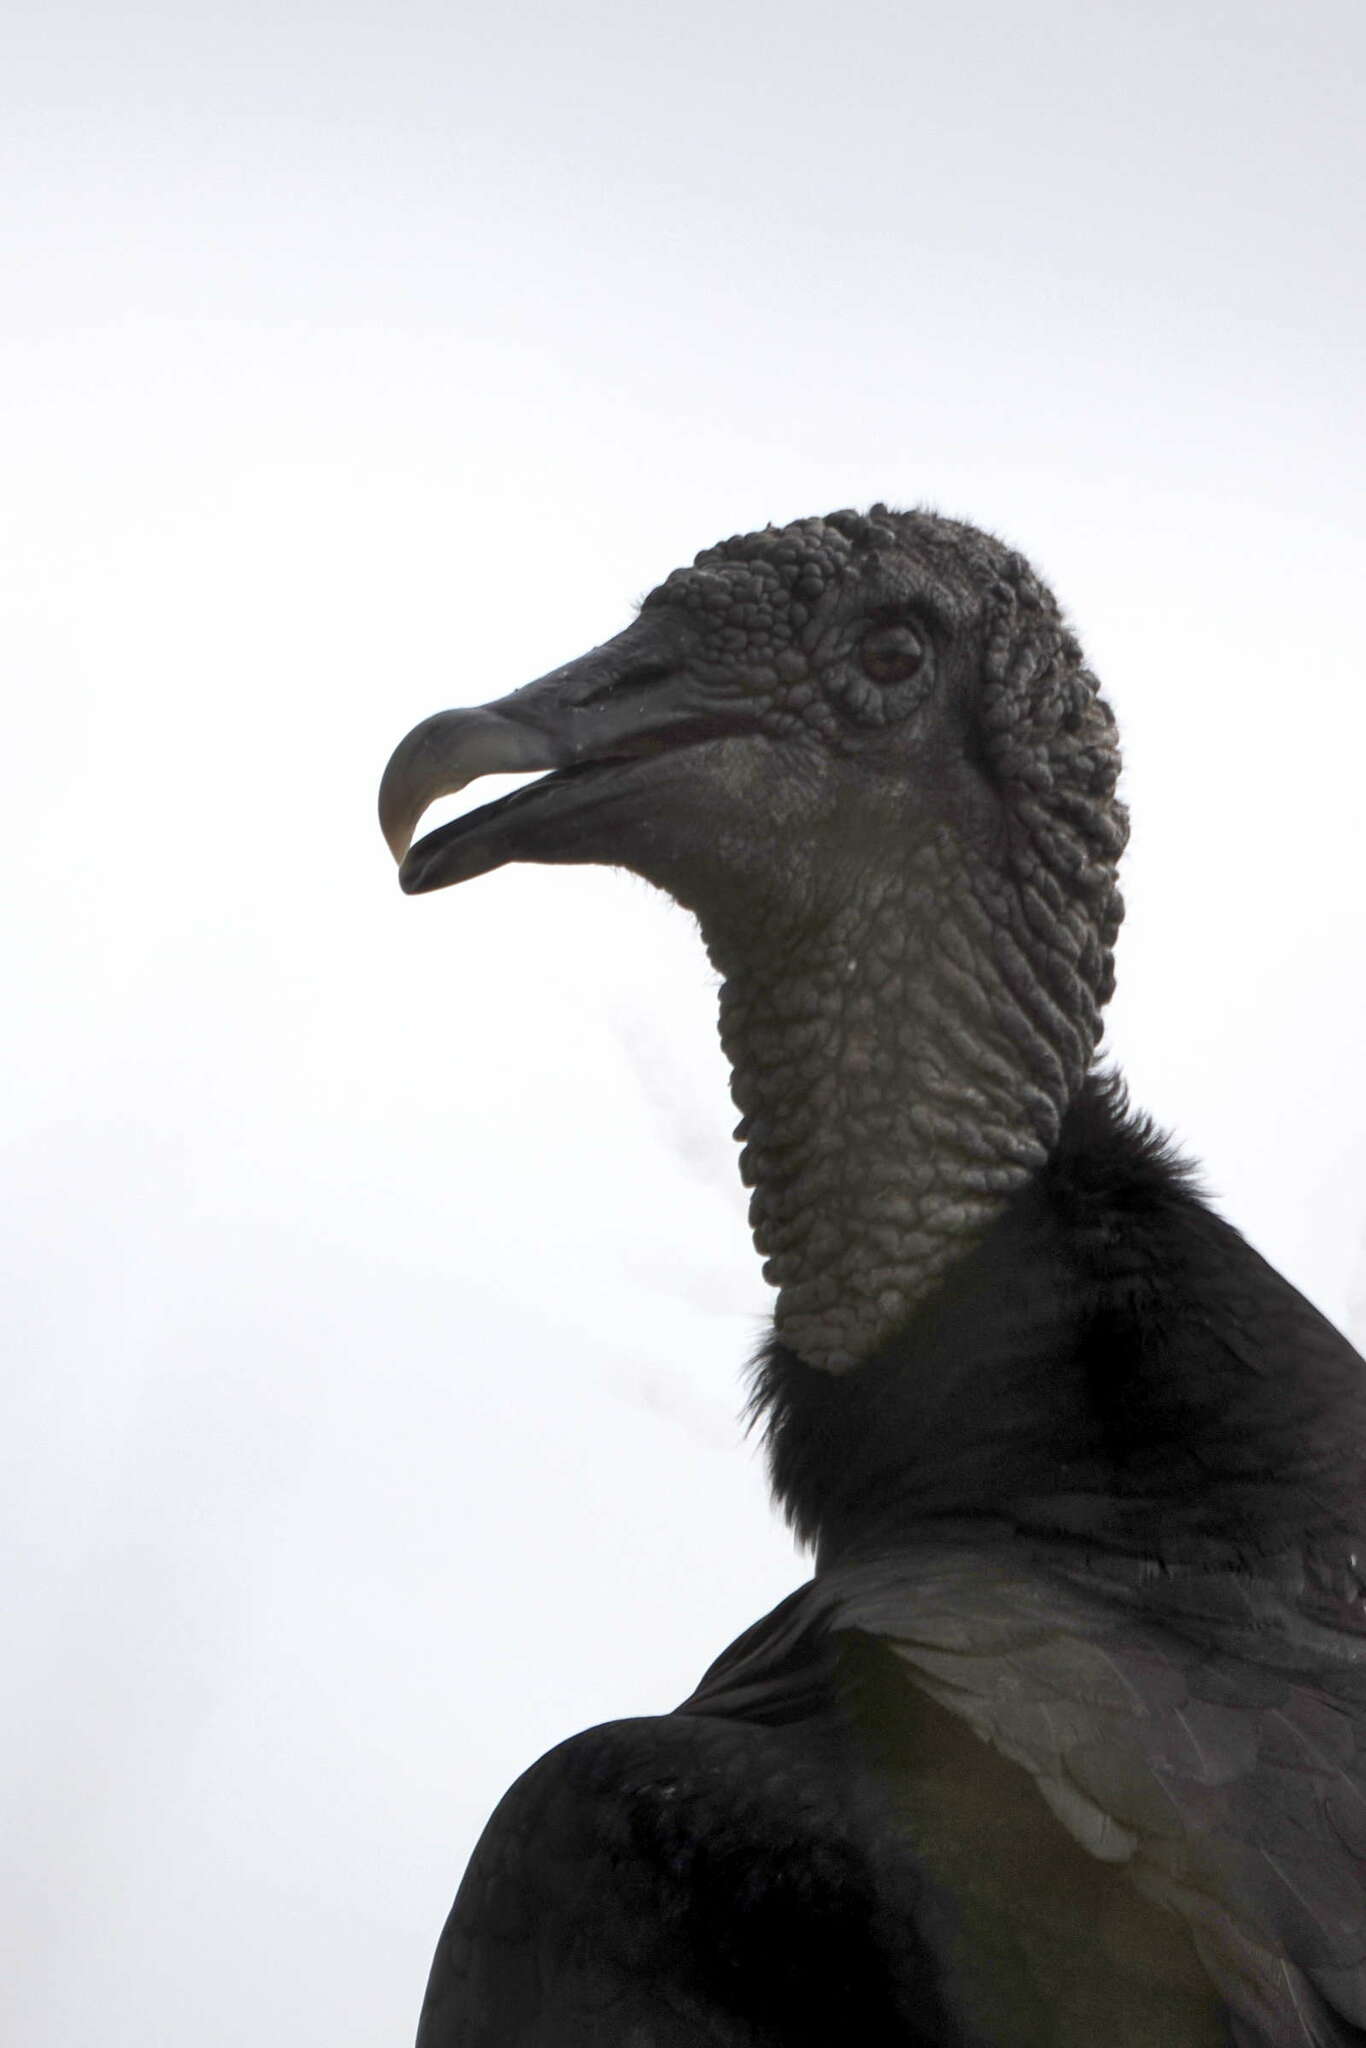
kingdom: Animalia
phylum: Chordata
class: Aves
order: Accipitriformes
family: Cathartidae
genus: Coragyps
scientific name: Coragyps atratus
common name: Black vulture
